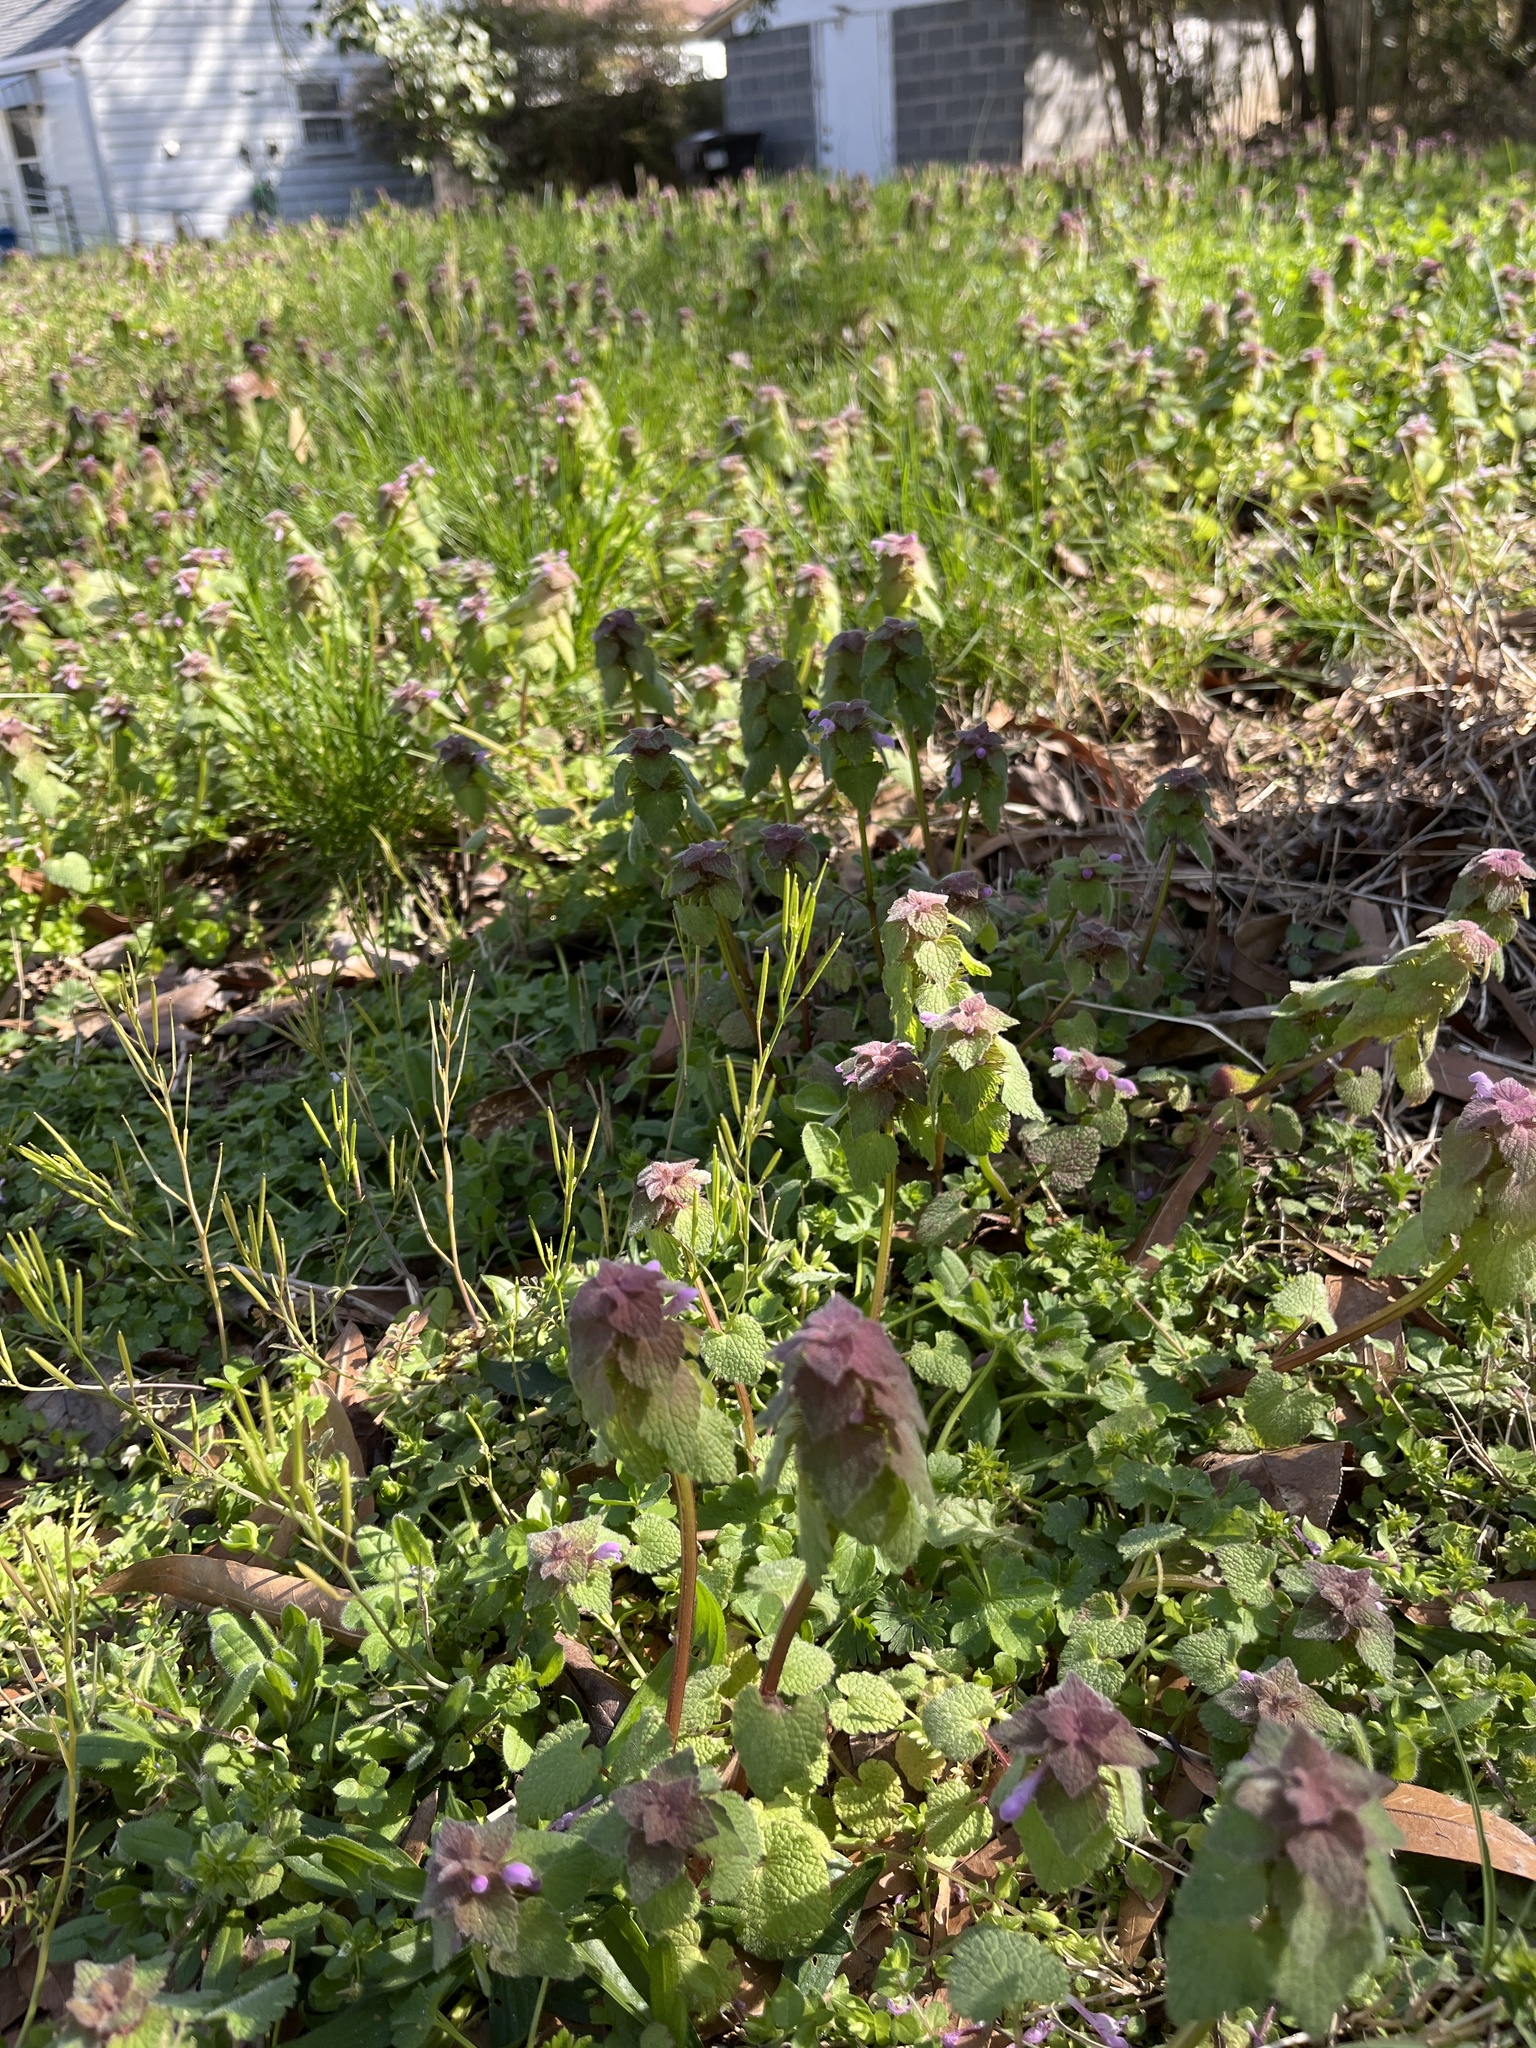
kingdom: Plantae
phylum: Tracheophyta
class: Magnoliopsida
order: Lamiales
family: Lamiaceae
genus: Lamium
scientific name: Lamium purpureum
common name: Red dead-nettle
